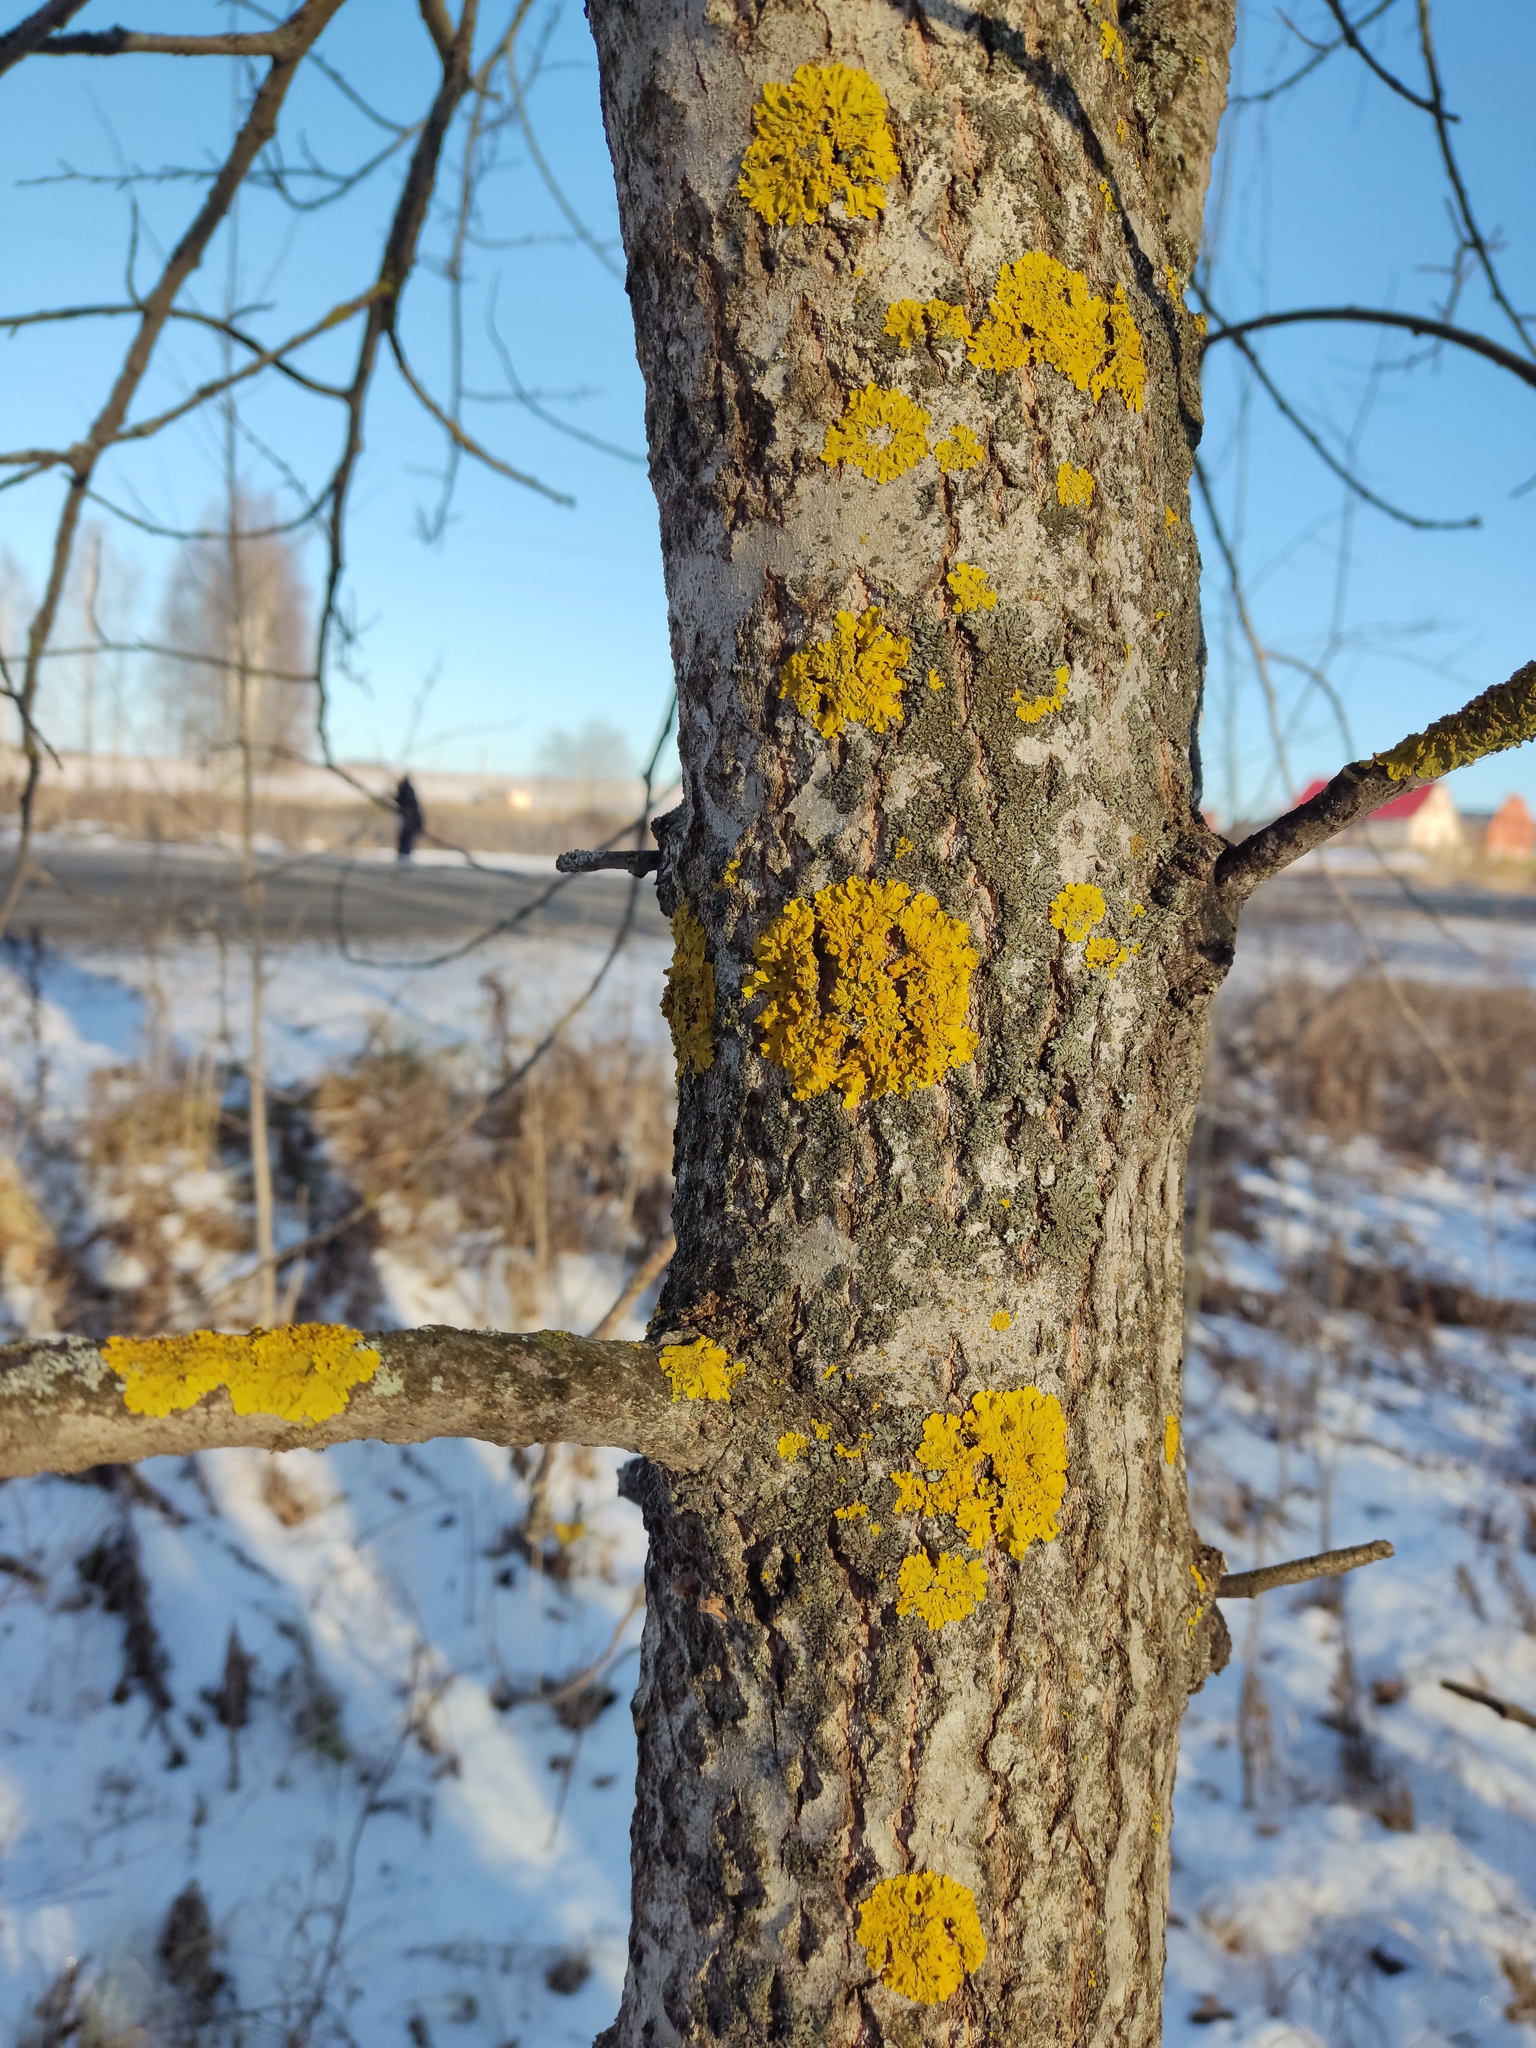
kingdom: Fungi
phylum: Ascomycota
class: Lecanoromycetes
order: Teloschistales
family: Teloschistaceae
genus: Xanthoria
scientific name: Xanthoria parietina
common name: Common orange lichen
